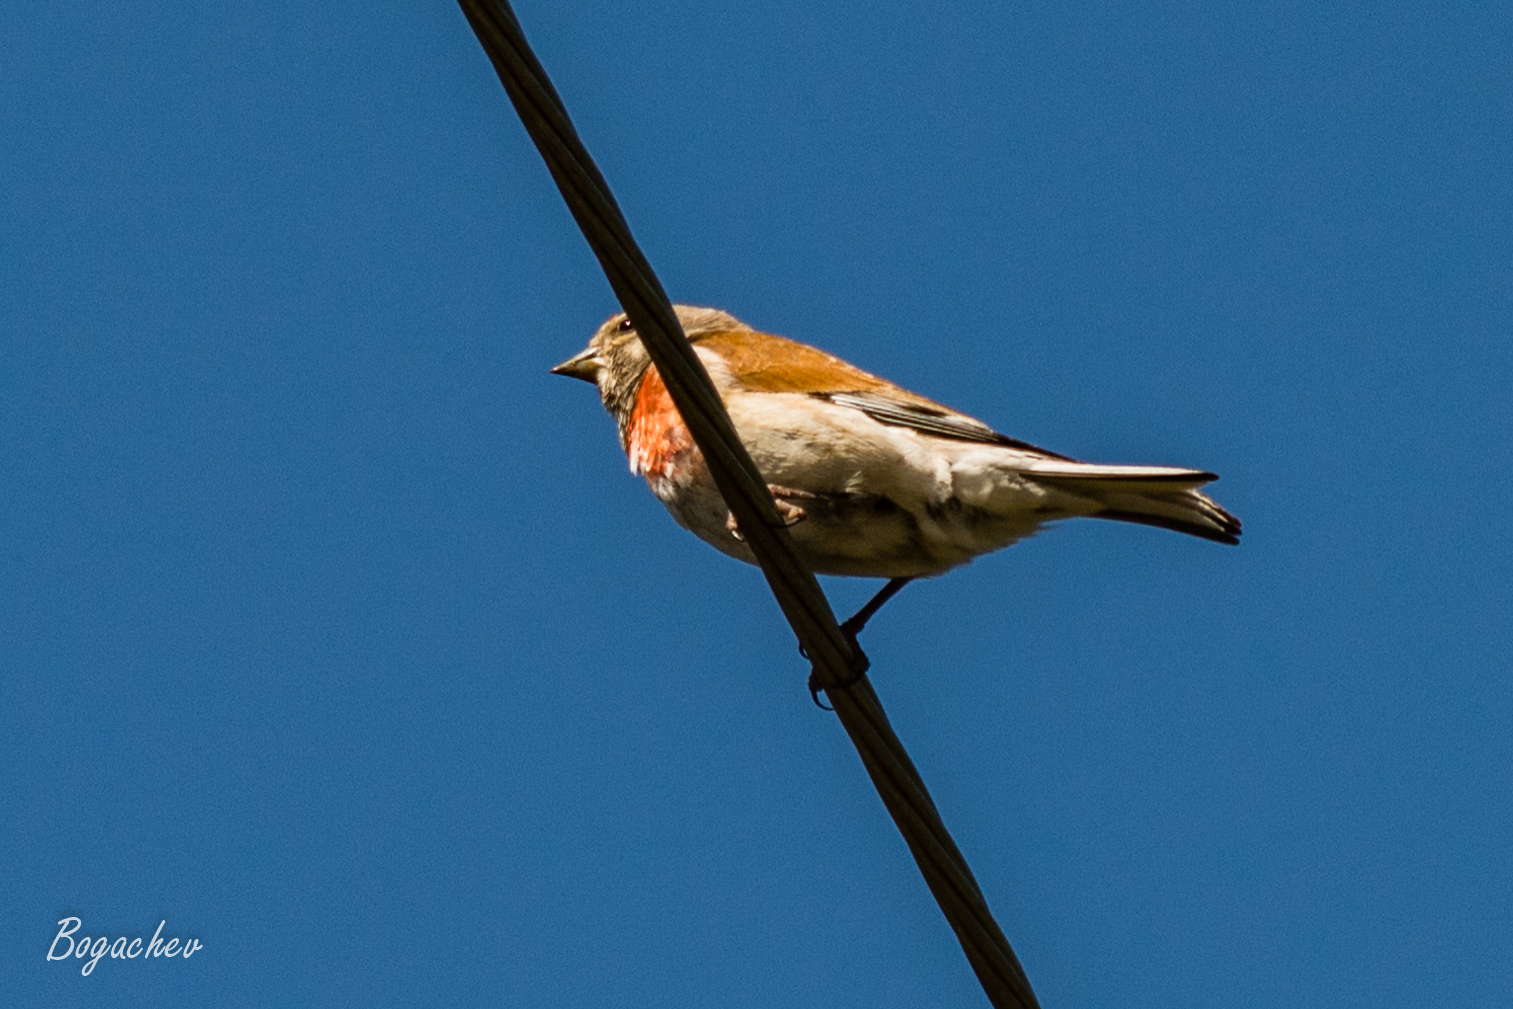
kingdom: Animalia
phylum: Chordata
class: Aves
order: Passeriformes
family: Fringillidae
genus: Linaria
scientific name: Linaria cannabina
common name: Common linnet
